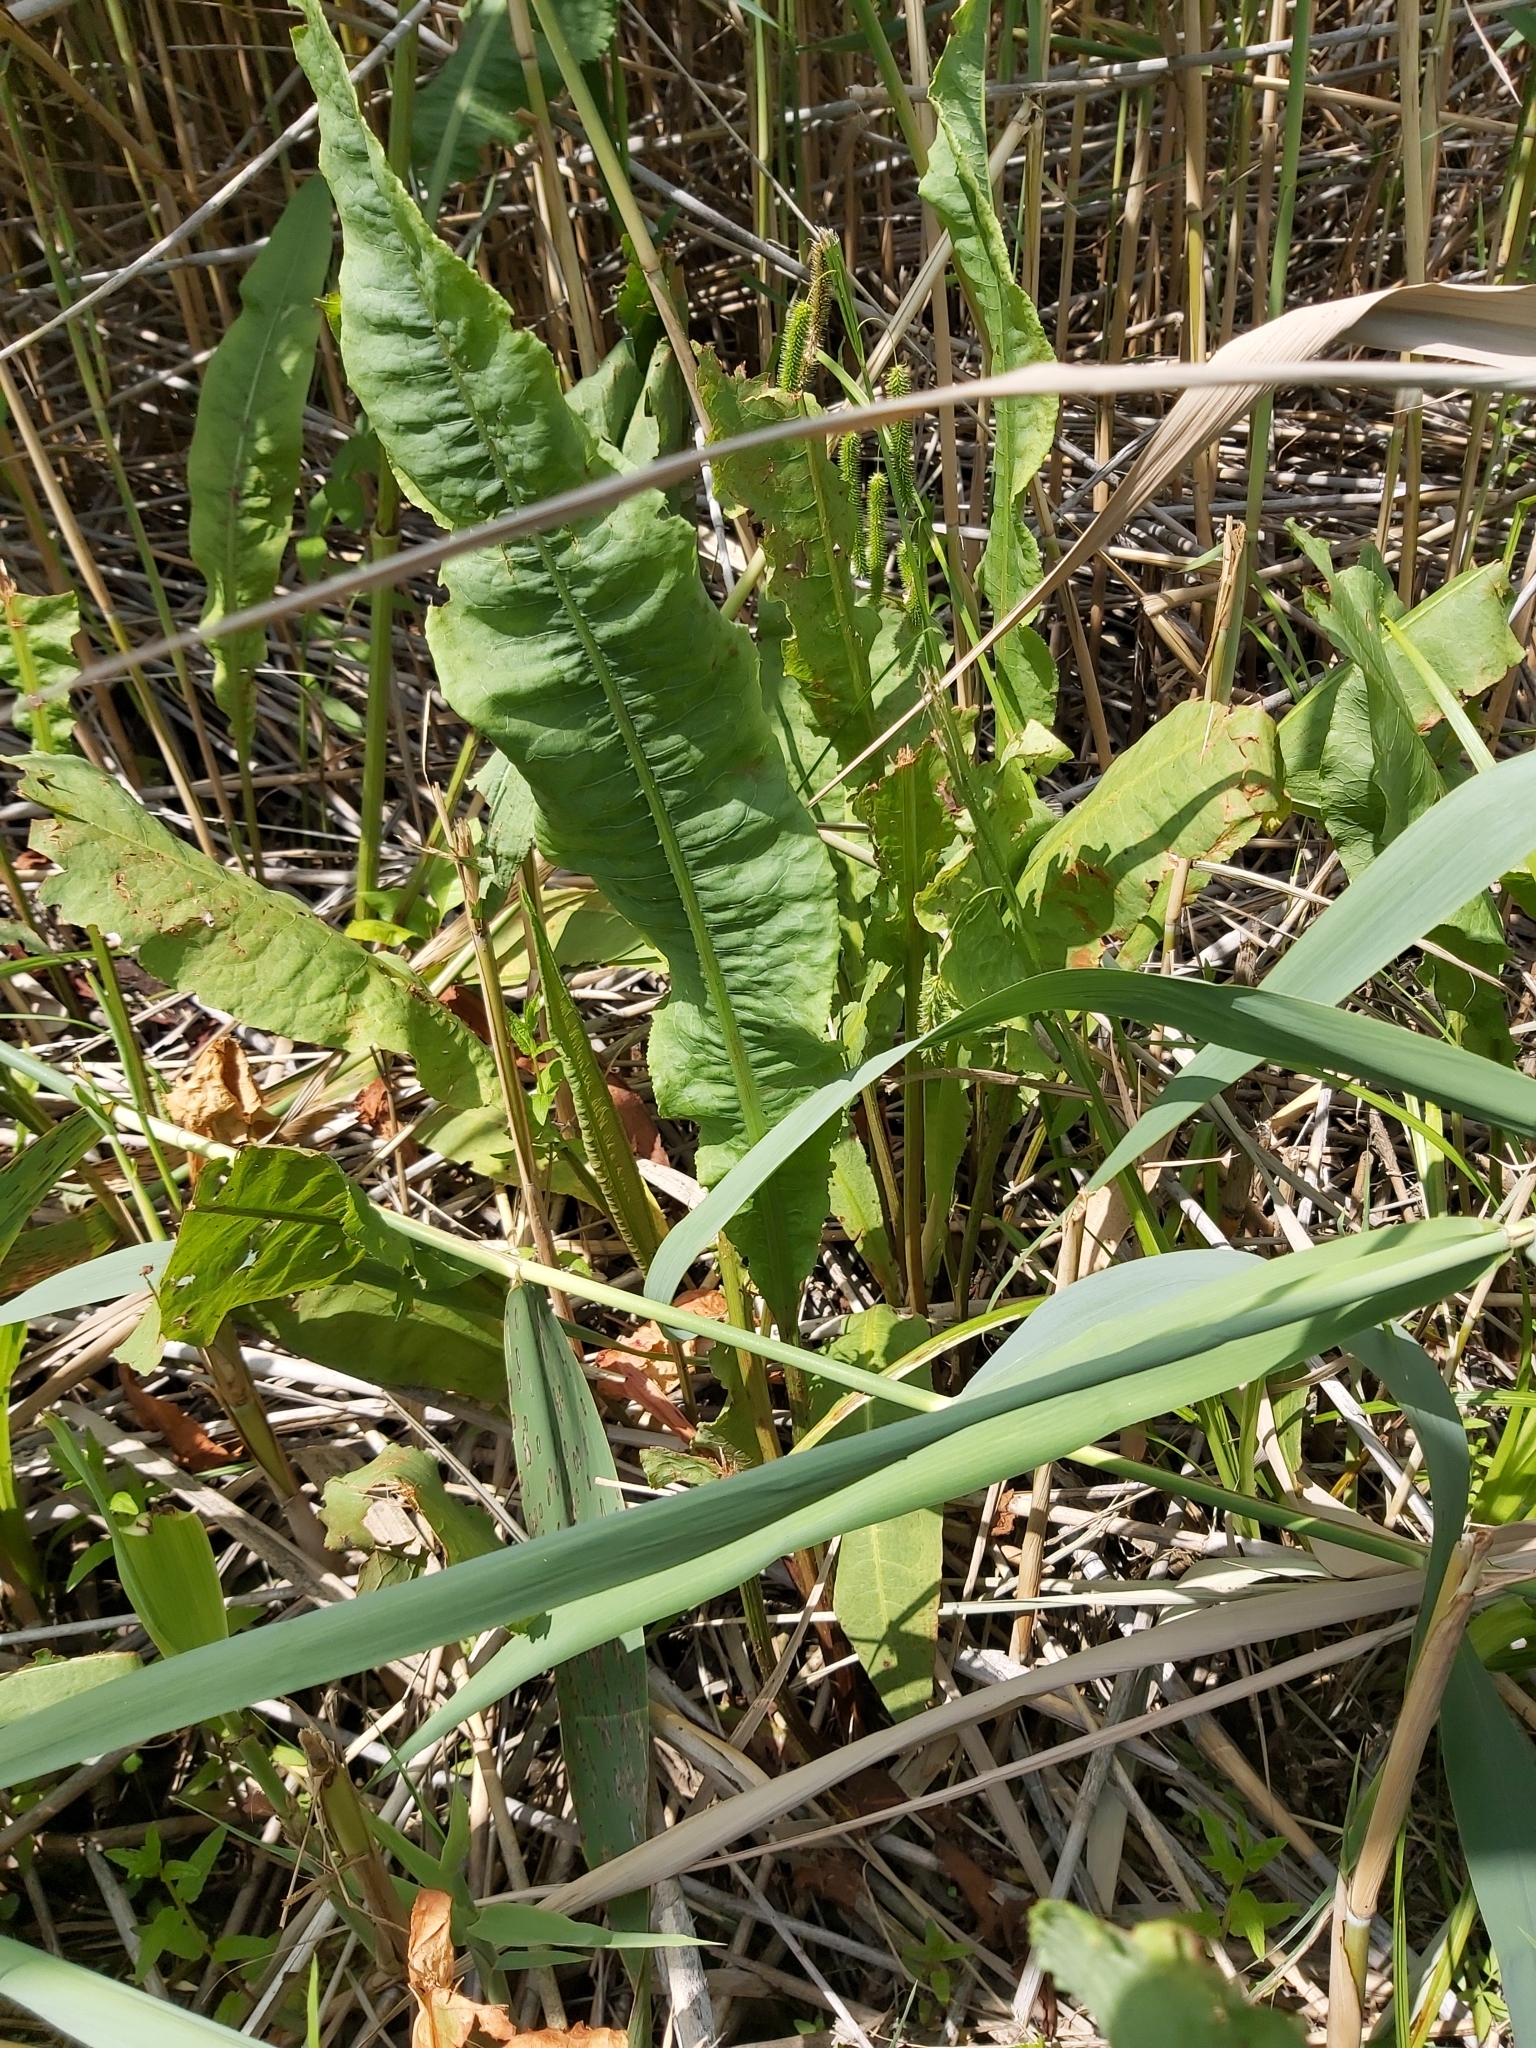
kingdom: Plantae
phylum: Tracheophyta
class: Magnoliopsida
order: Caryophyllales
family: Polygonaceae
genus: Rumex
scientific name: Rumex hydrolapathum
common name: Water dock
